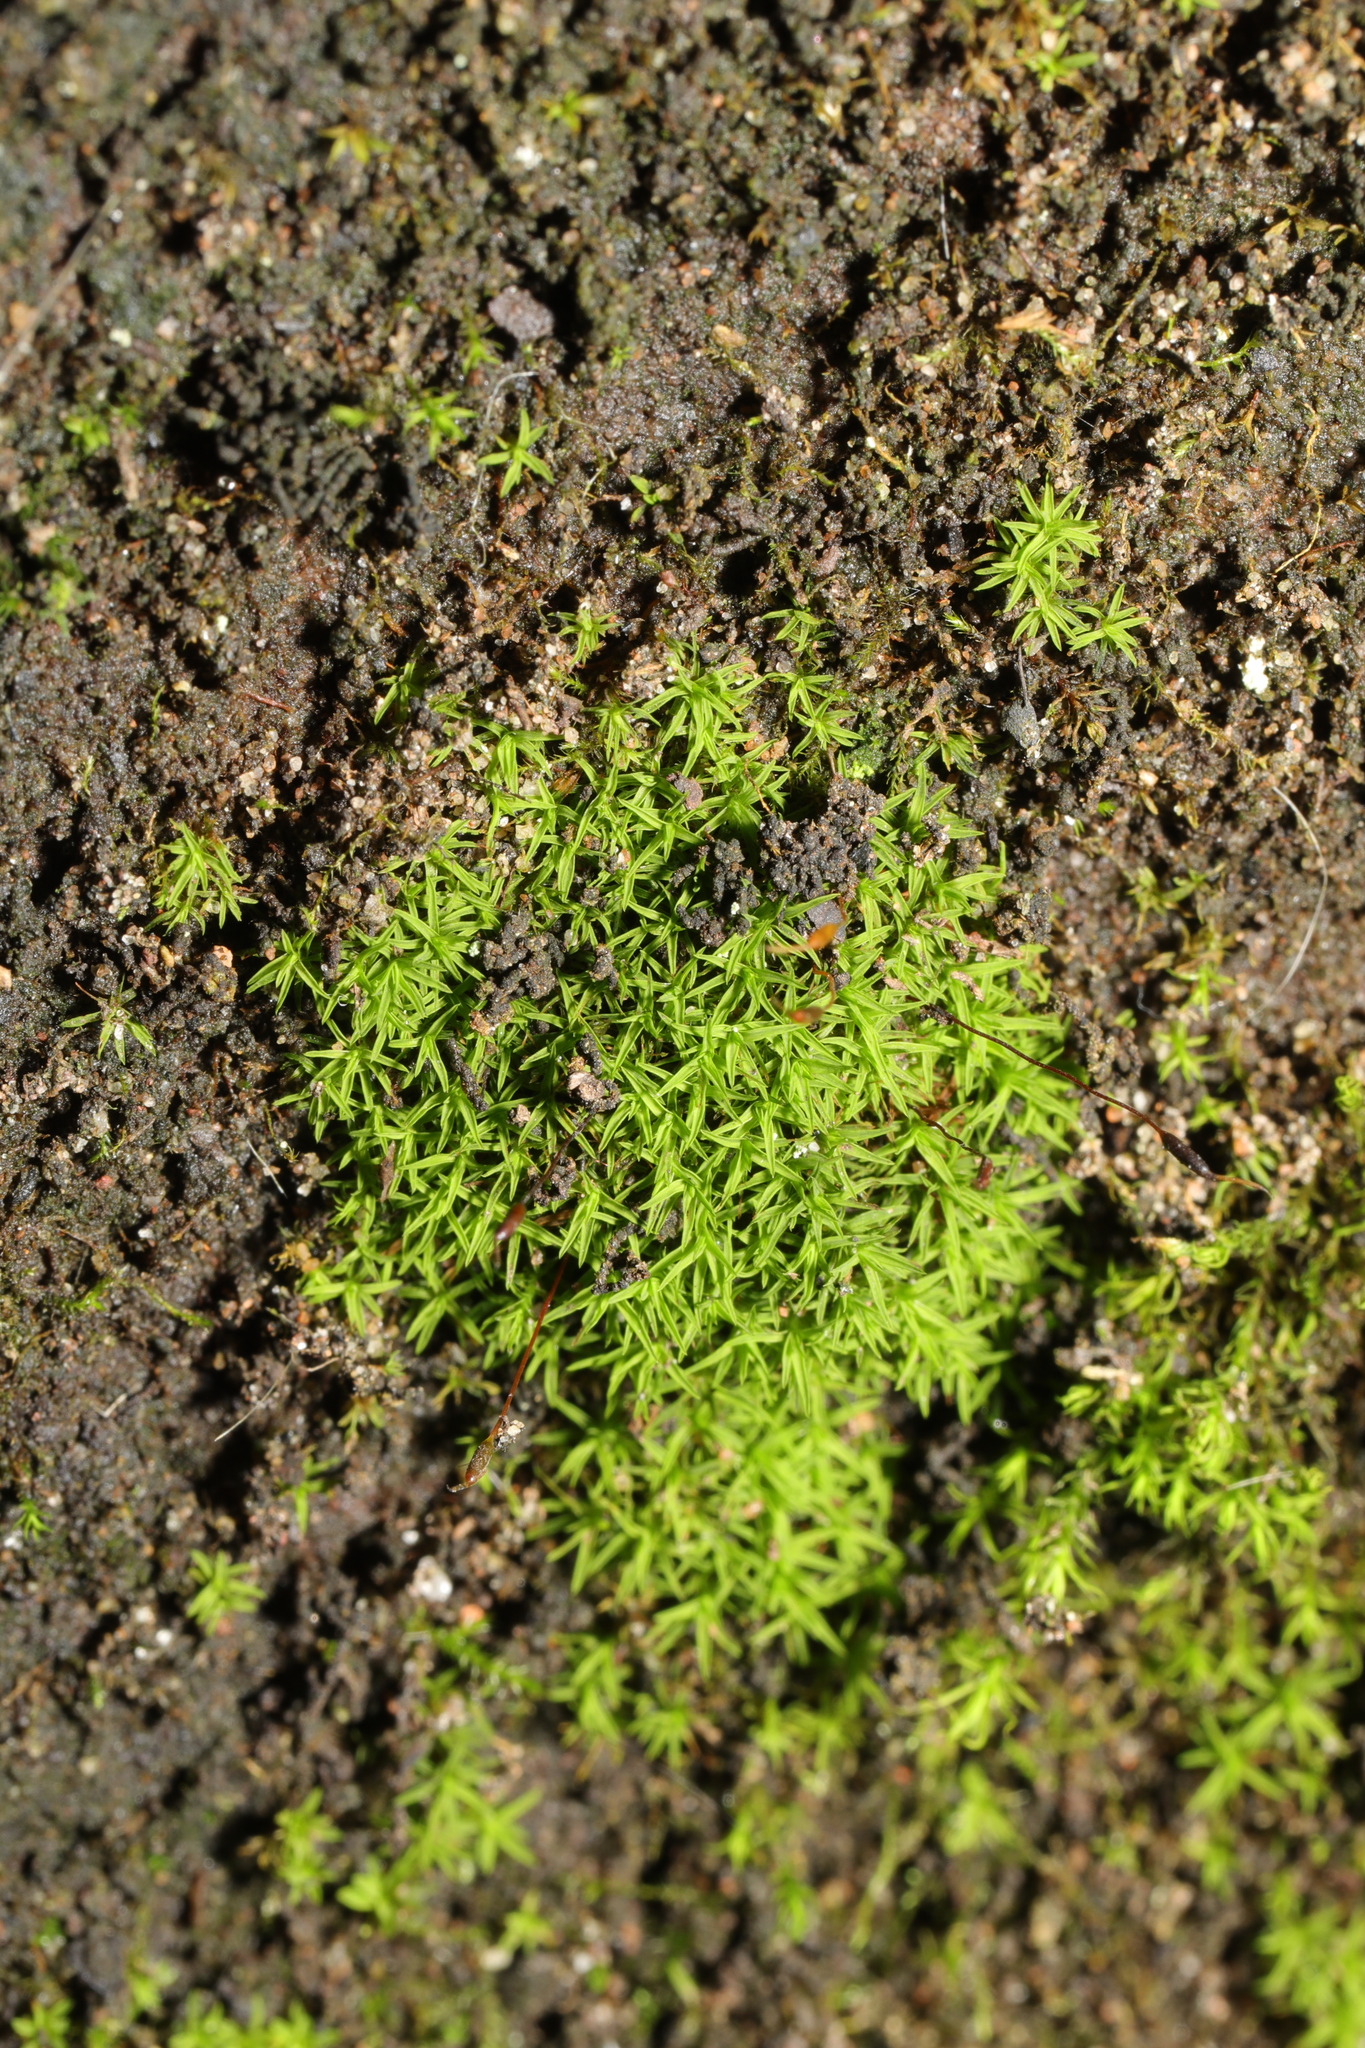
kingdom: Plantae
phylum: Bryophyta
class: Bryopsida
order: Pottiales
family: Pottiaceae
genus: Bryoerythrophyllum
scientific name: Bryoerythrophyllum recurvirostrum
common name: Red beard moss
